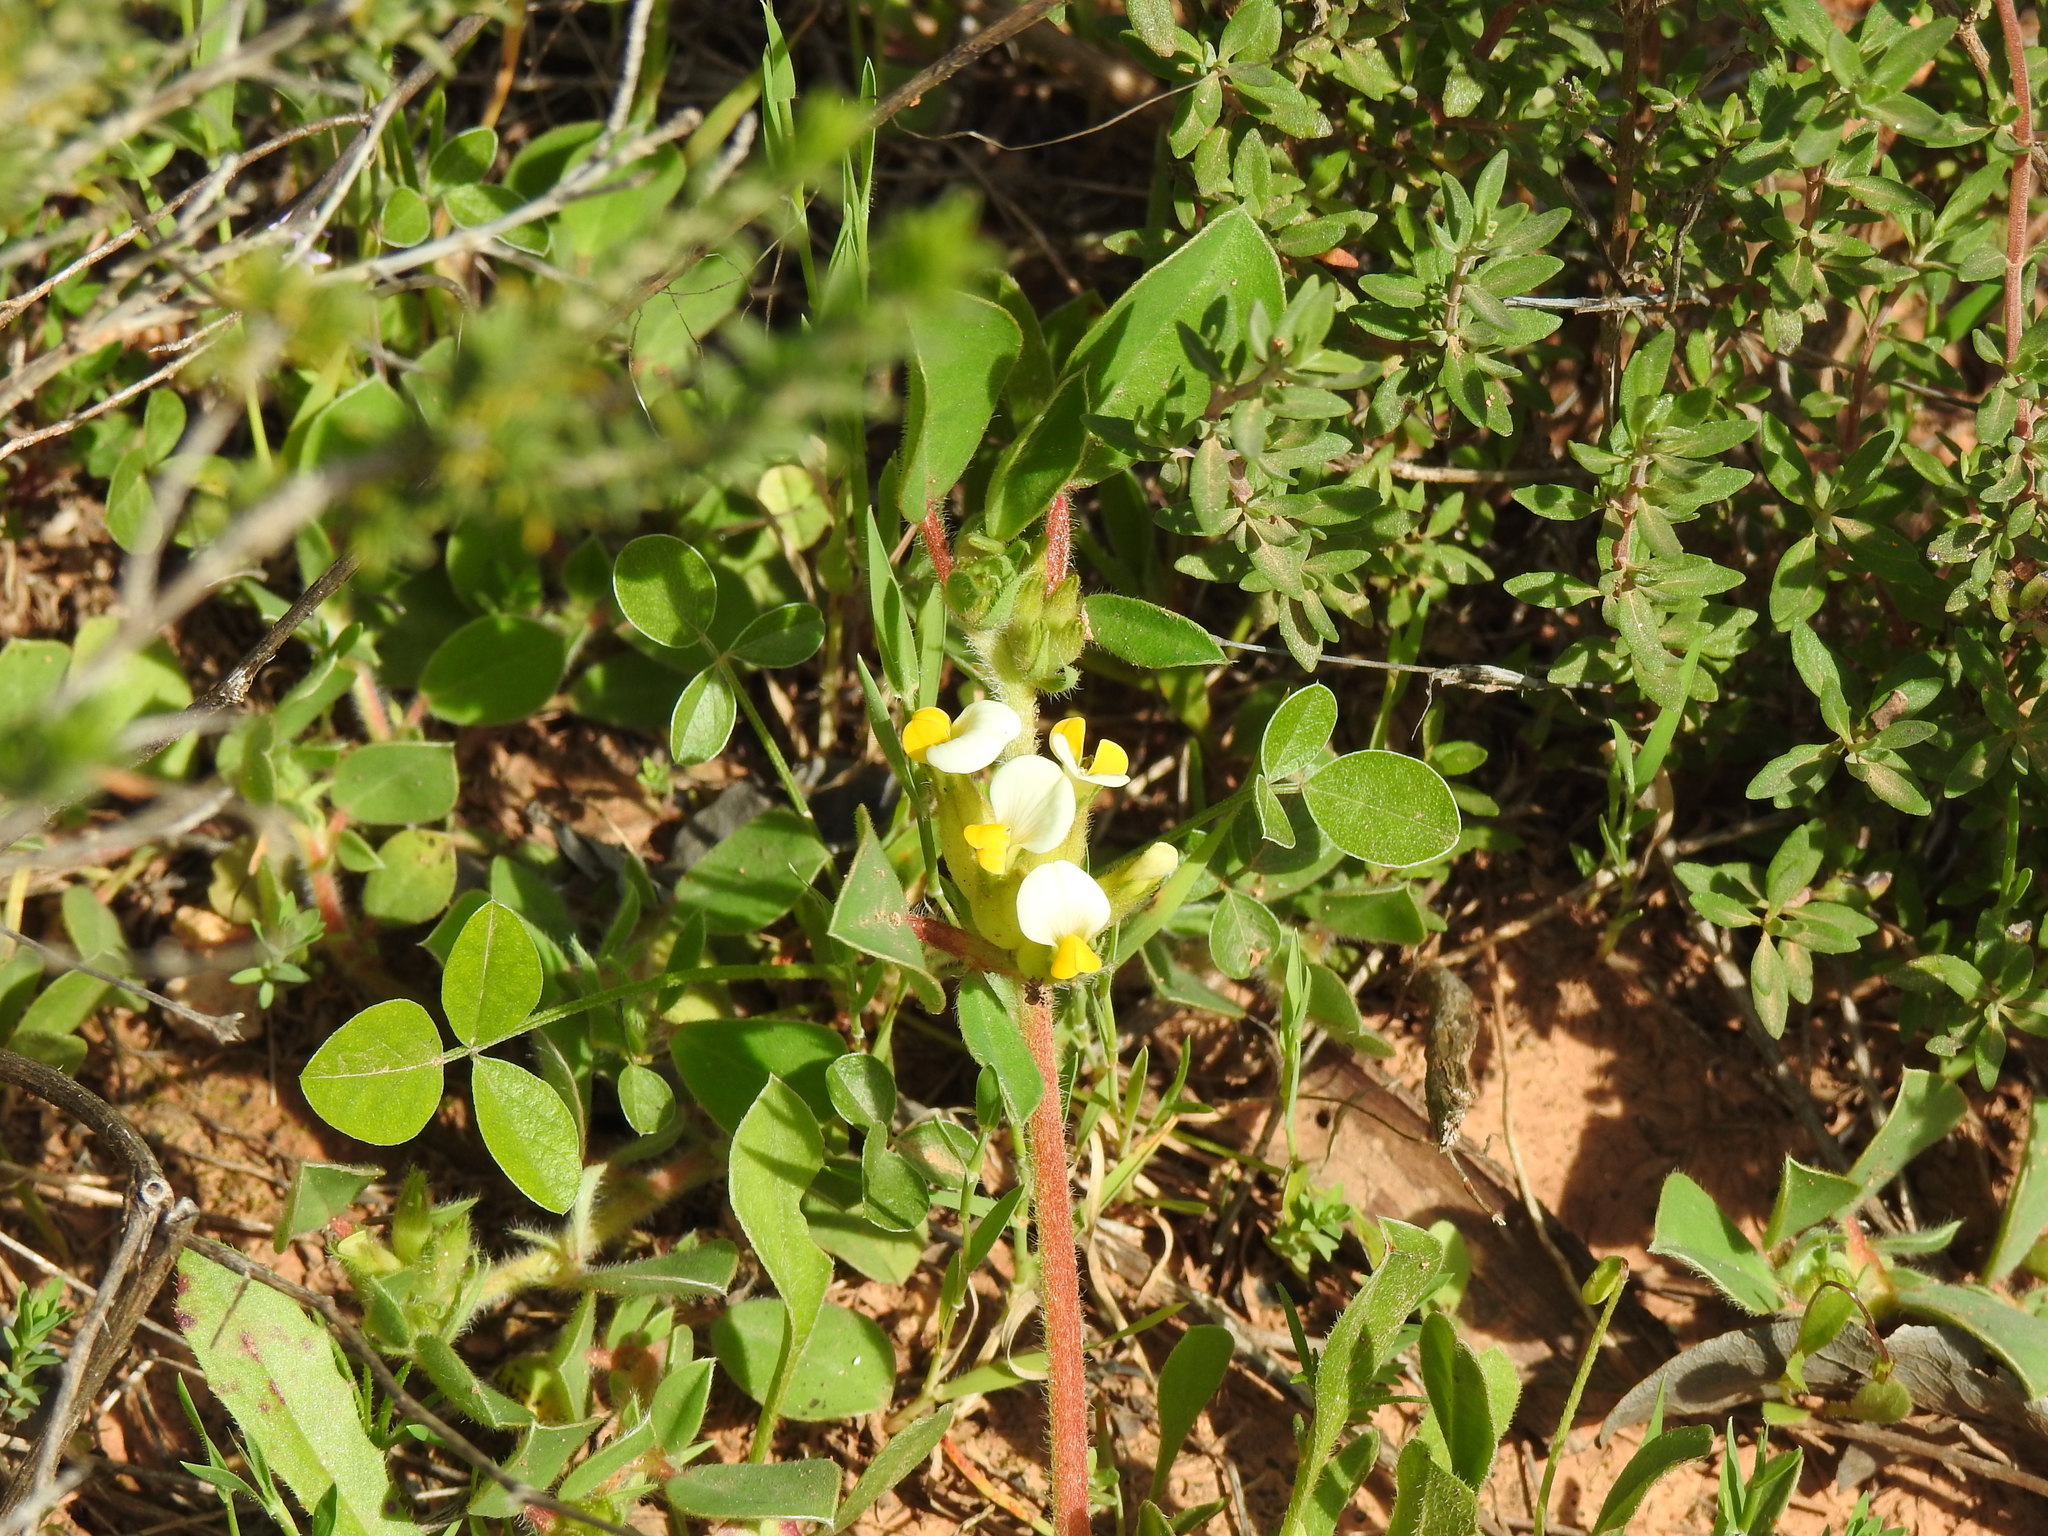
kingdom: Plantae
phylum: Tracheophyta
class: Magnoliopsida
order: Fabales
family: Fabaceae
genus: Tripodion
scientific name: Tripodion tetraphyllum
